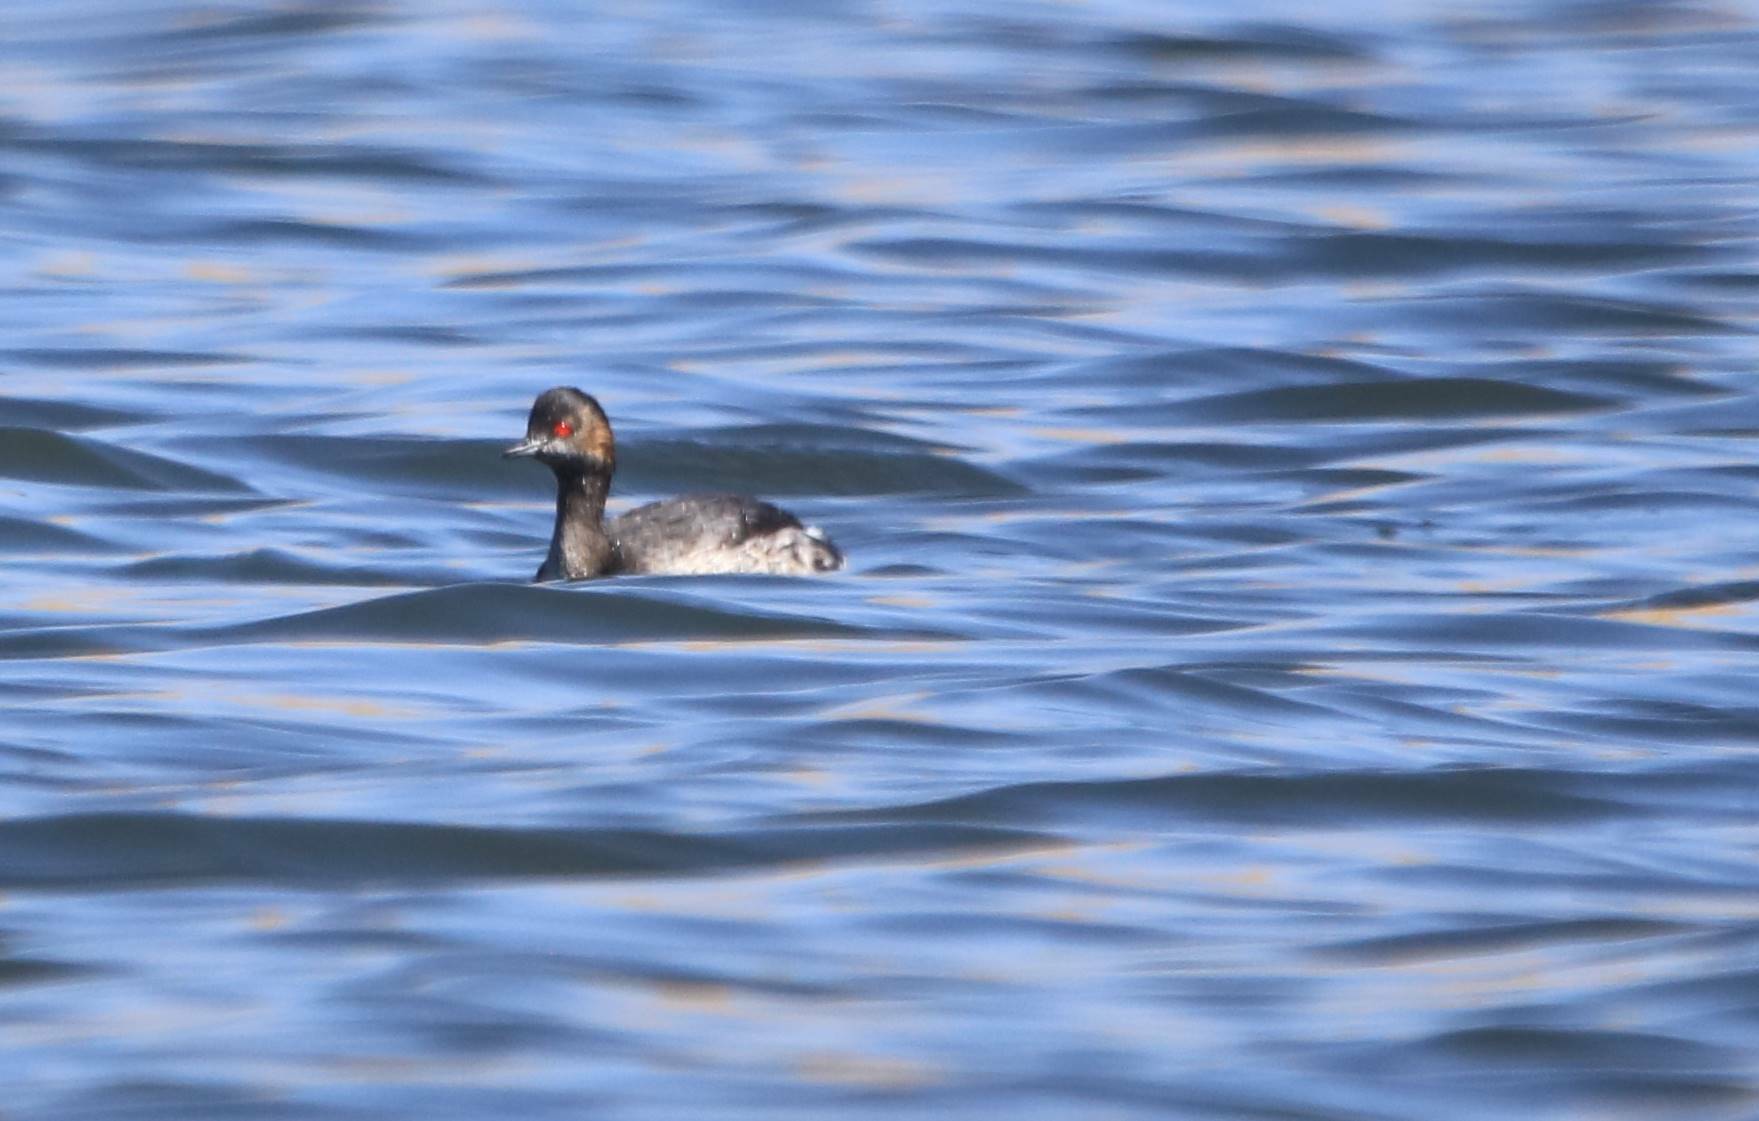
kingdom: Animalia
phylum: Chordata
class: Aves
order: Podicipediformes
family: Podicipedidae
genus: Podiceps
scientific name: Podiceps nigricollis
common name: Black-necked grebe
